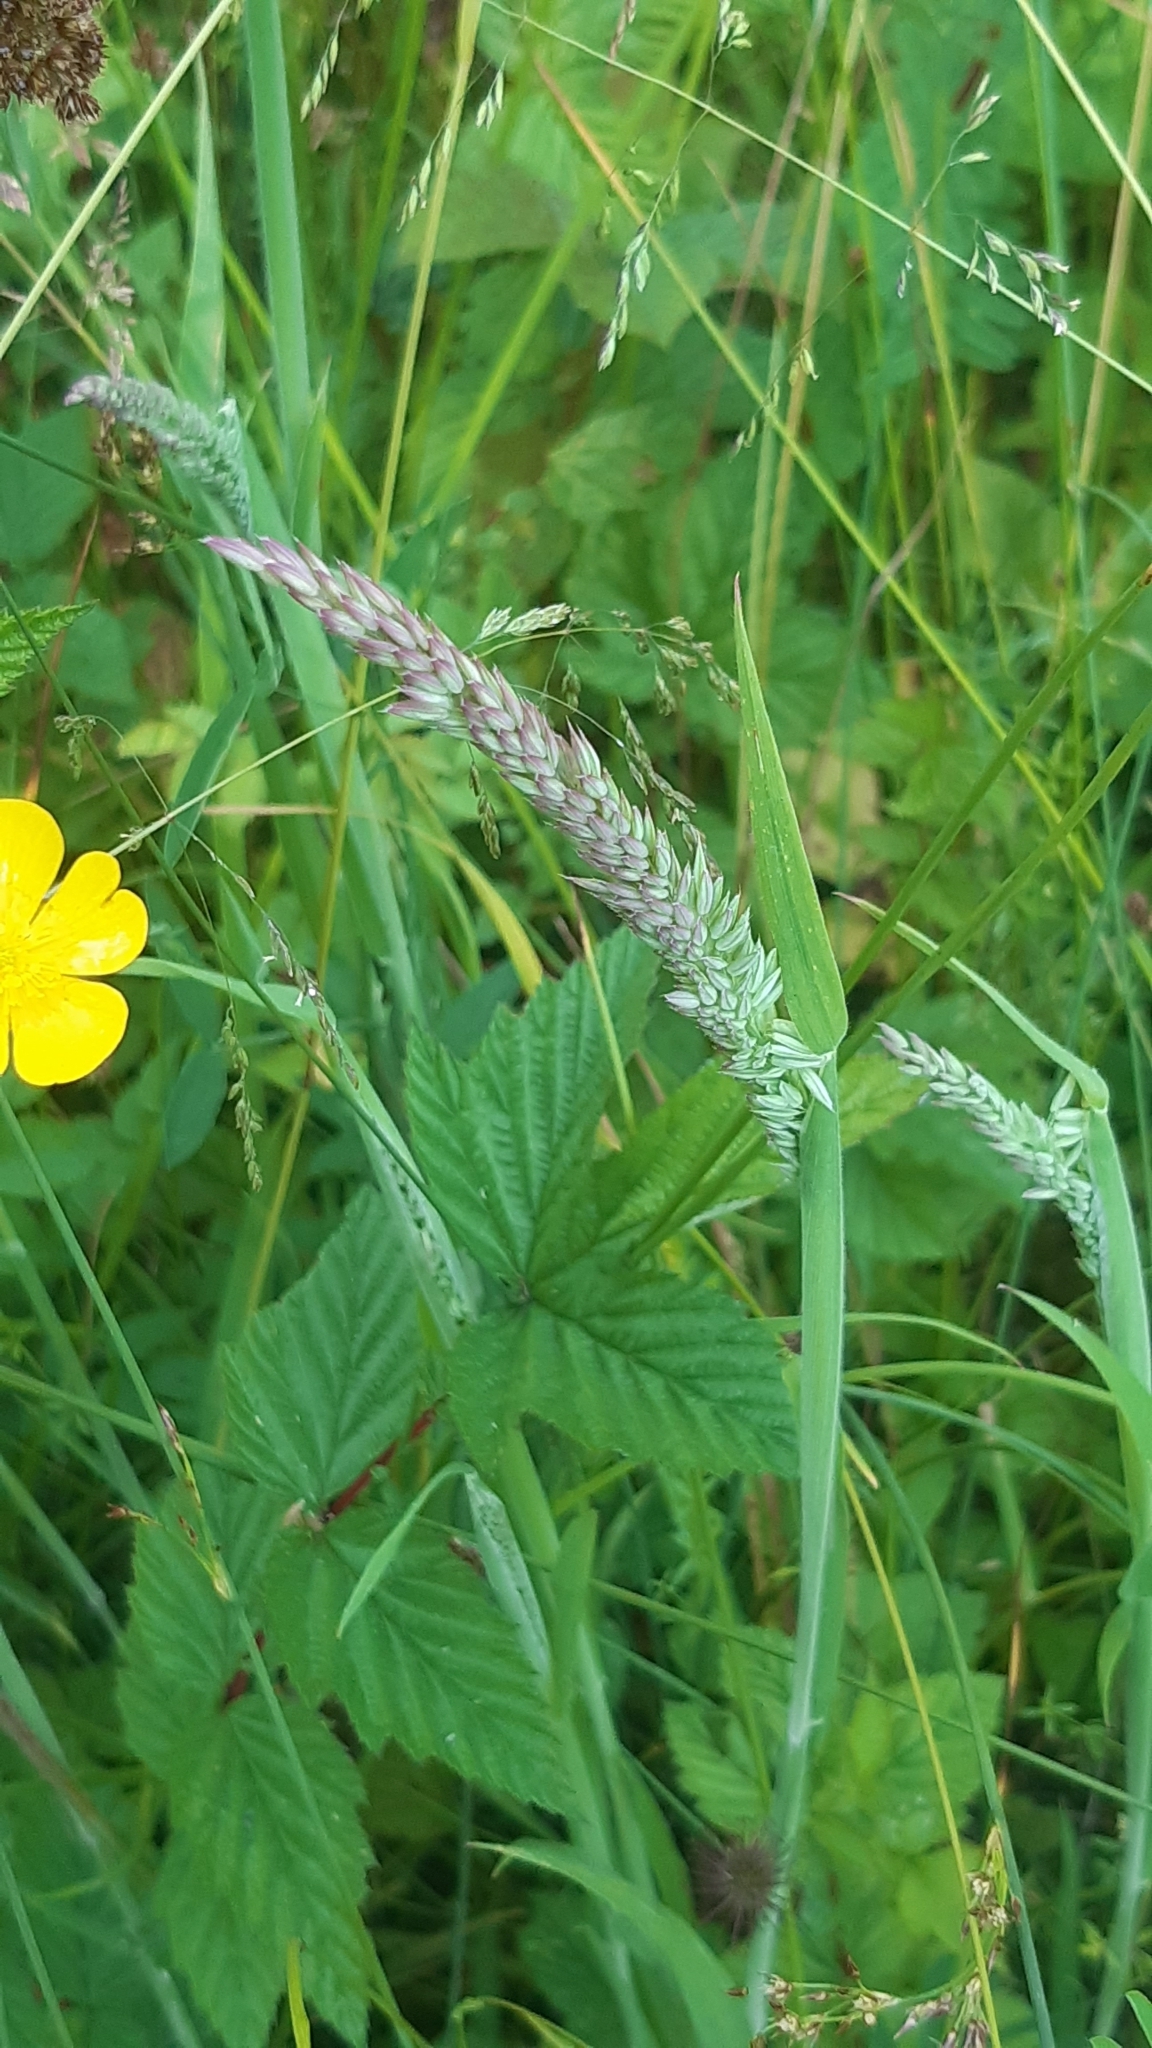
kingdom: Plantae
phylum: Tracheophyta
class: Liliopsida
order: Poales
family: Poaceae
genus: Holcus
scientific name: Holcus lanatus
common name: Yorkshire-fog
